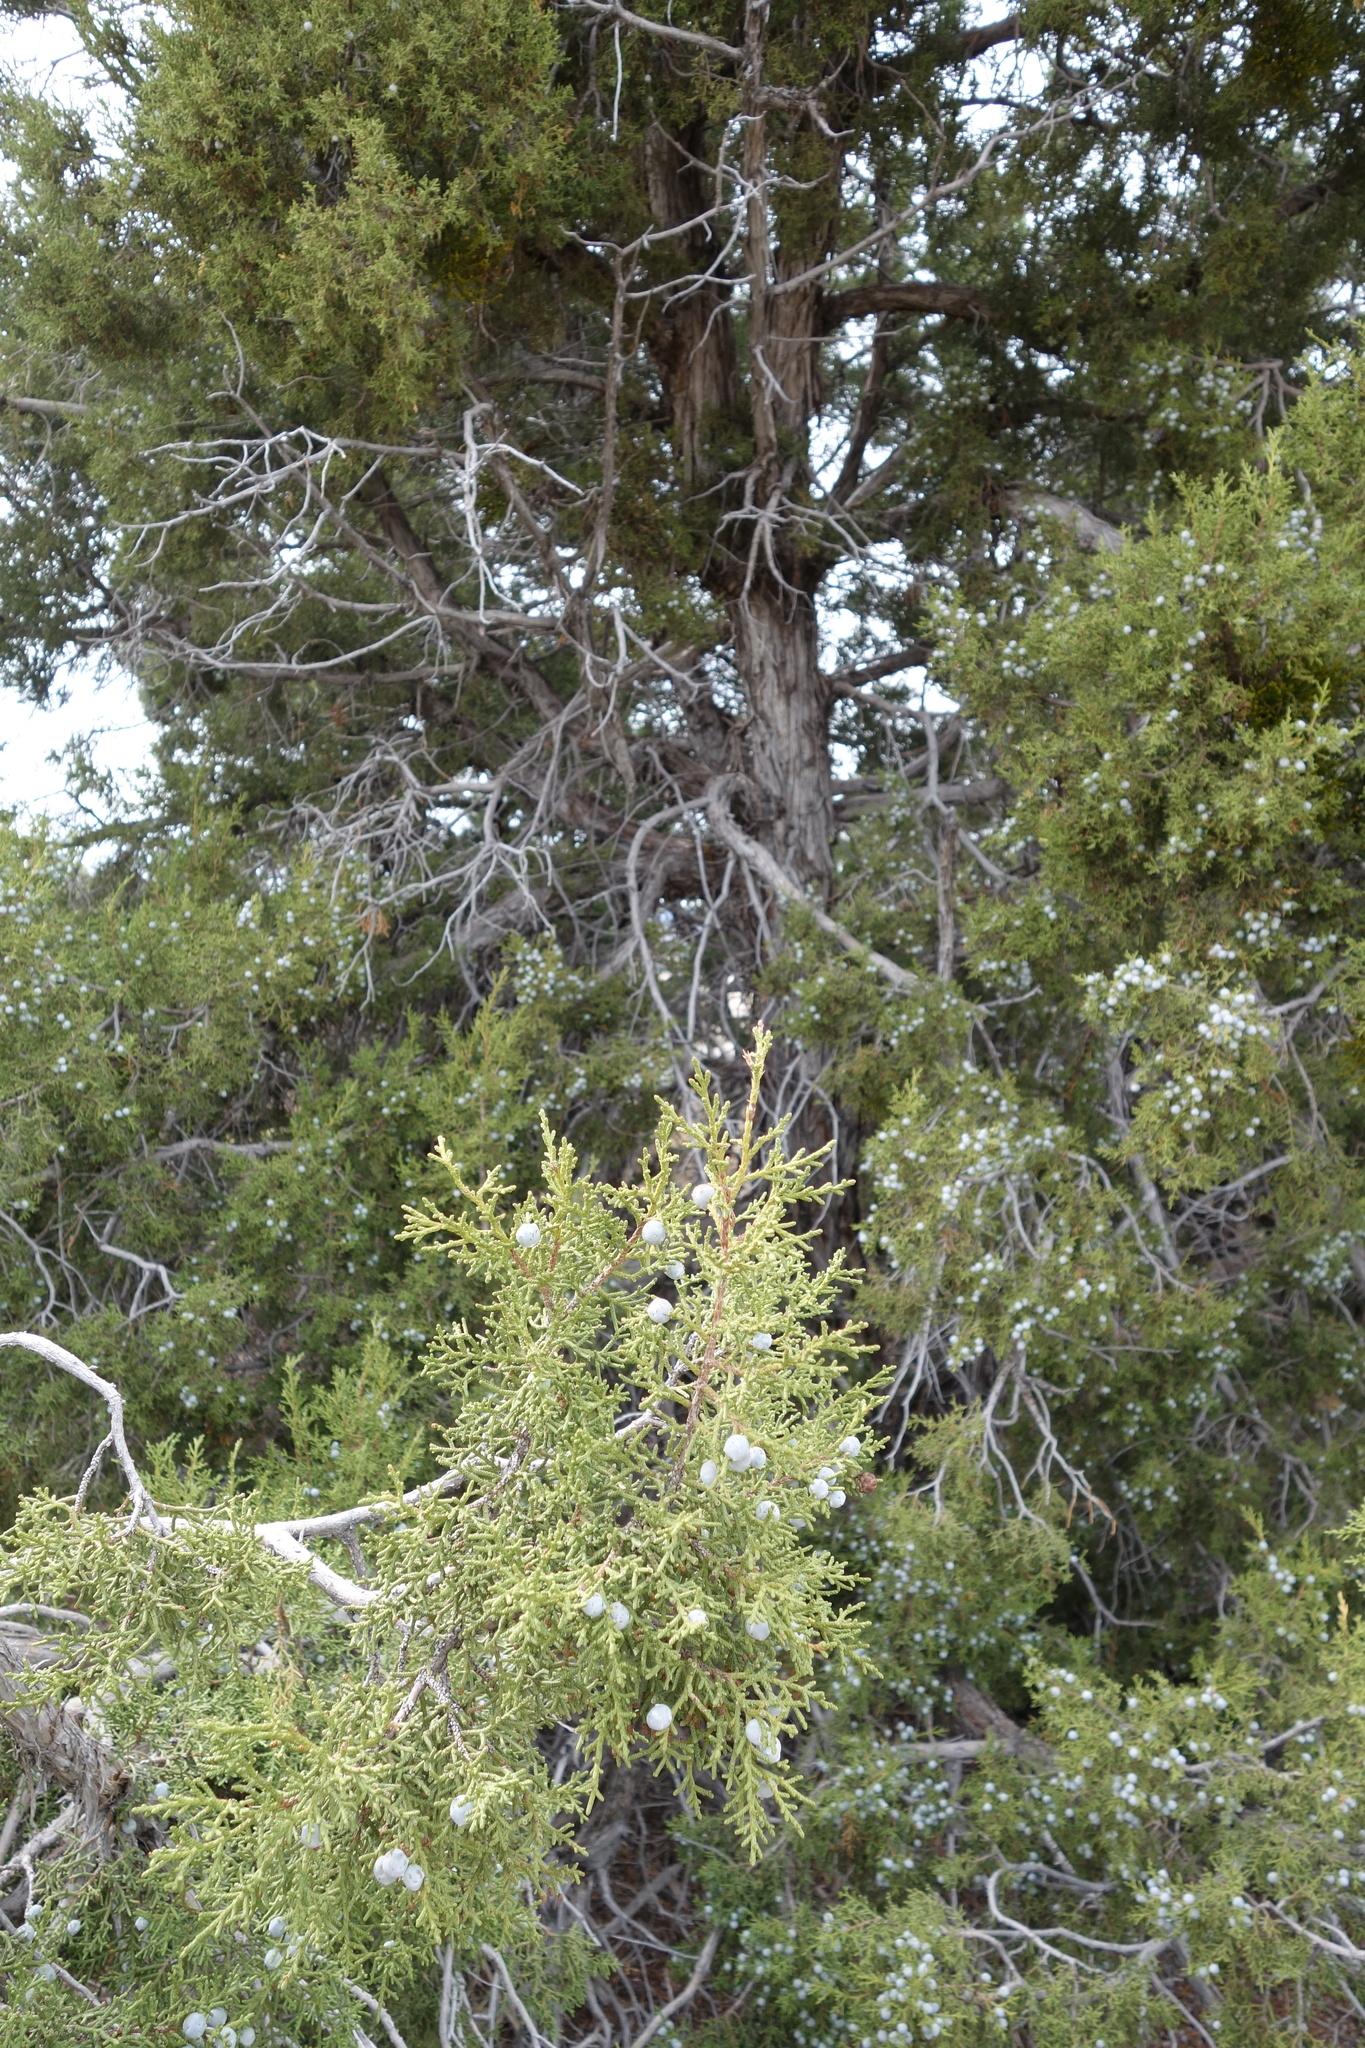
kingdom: Plantae
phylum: Tracheophyta
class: Pinopsida
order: Pinales
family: Cupressaceae
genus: Juniperus
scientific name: Juniperus osteosperma
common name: Utah juniper
